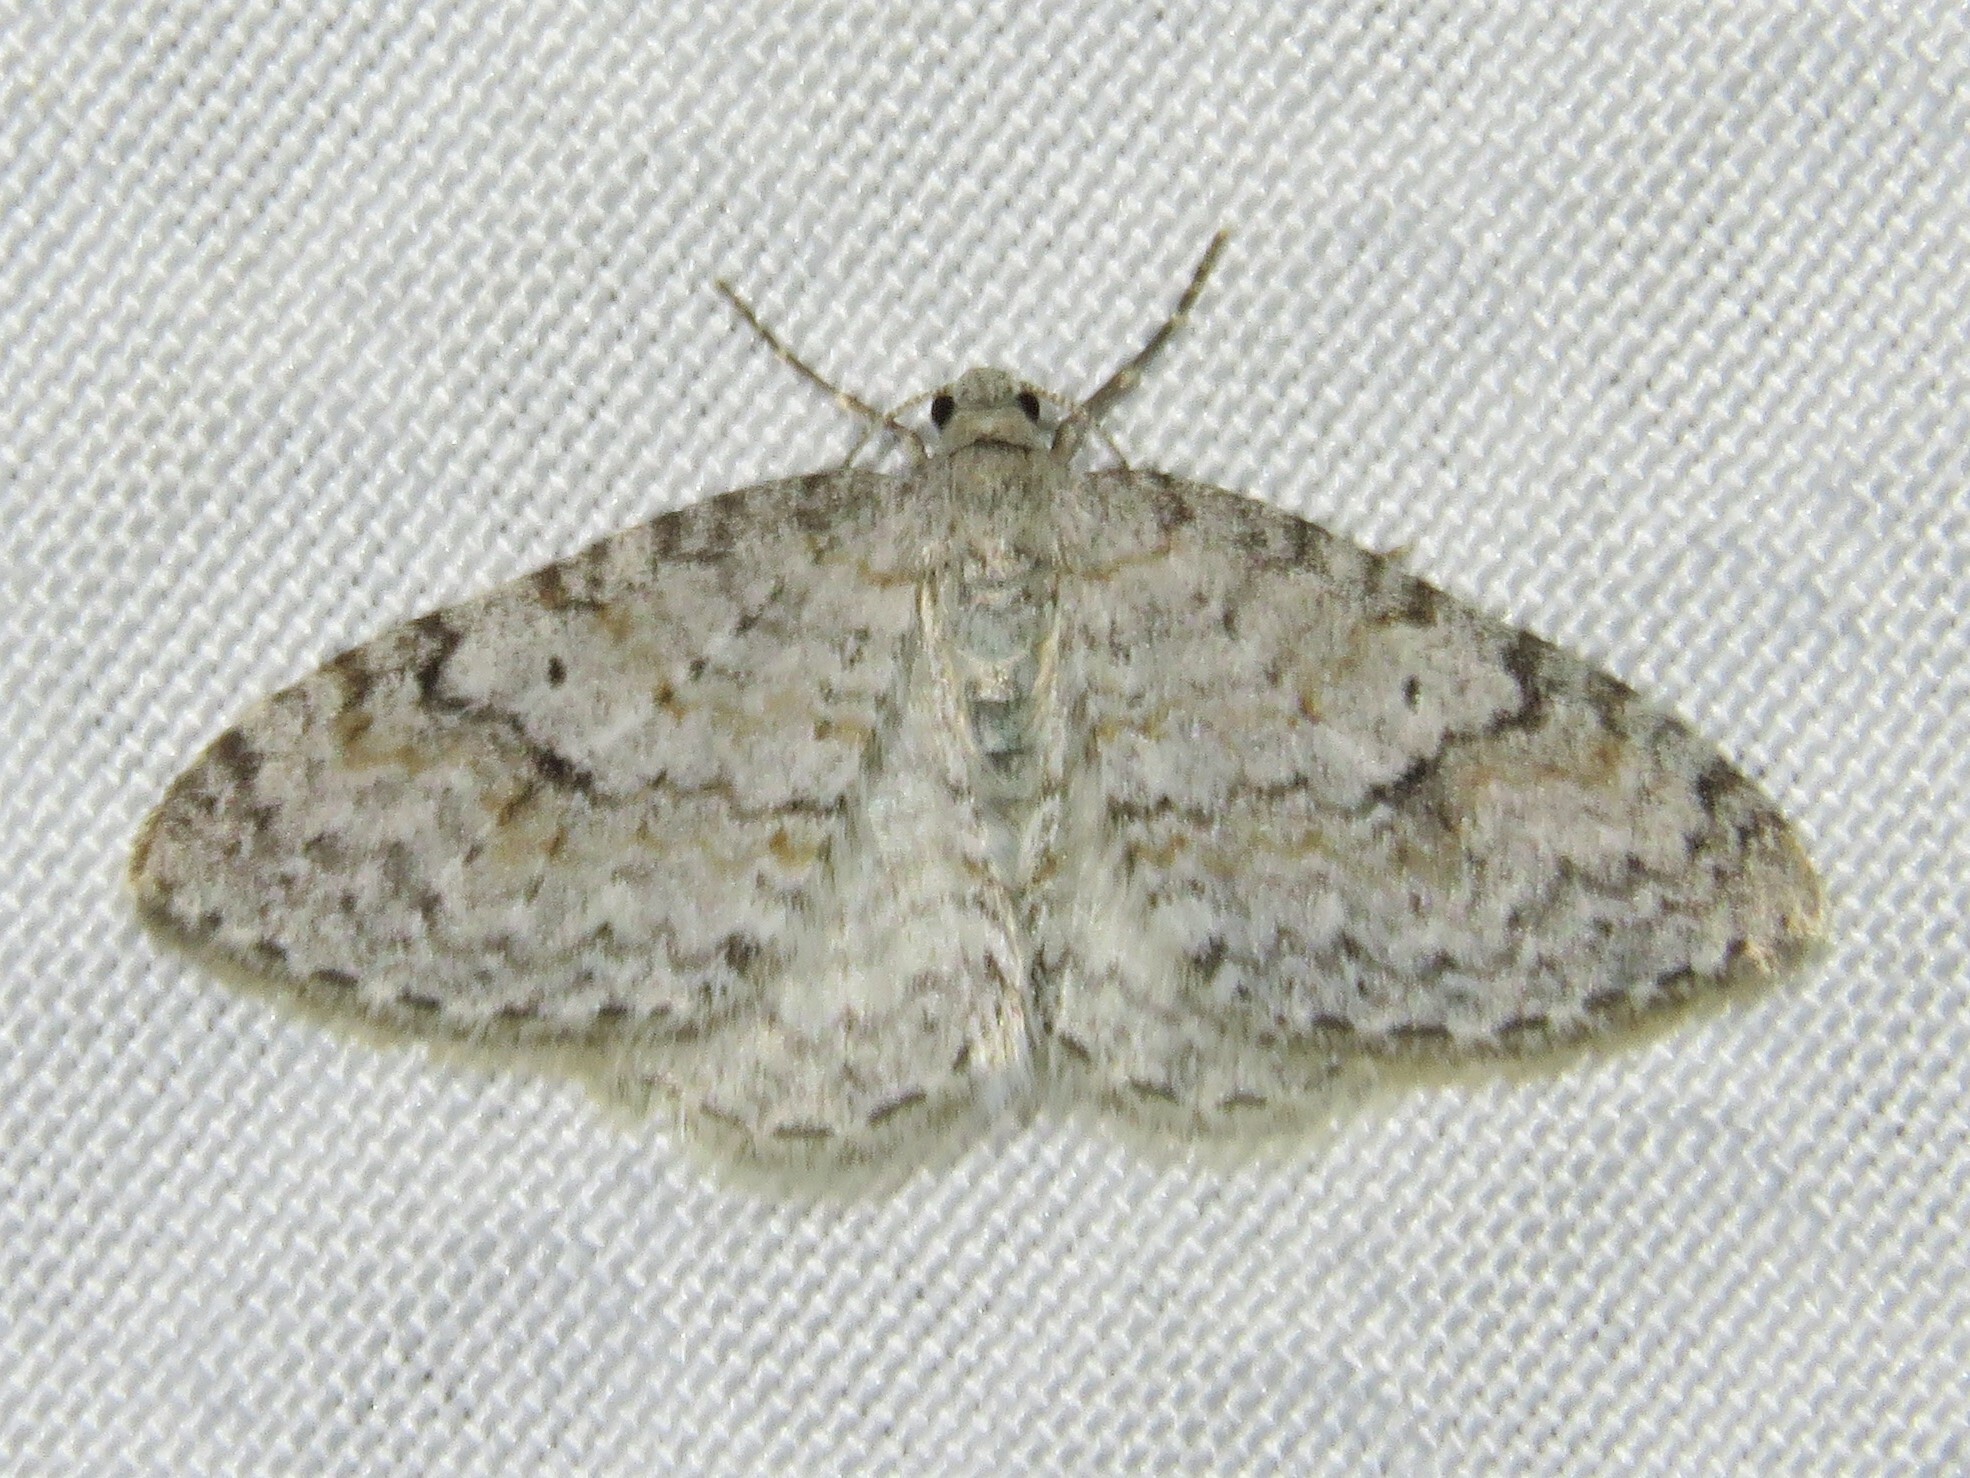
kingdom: Animalia
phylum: Arthropoda
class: Insecta
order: Lepidoptera
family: Geometridae
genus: Venusia
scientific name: Venusia comptaria
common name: Brown-shaded carpet
